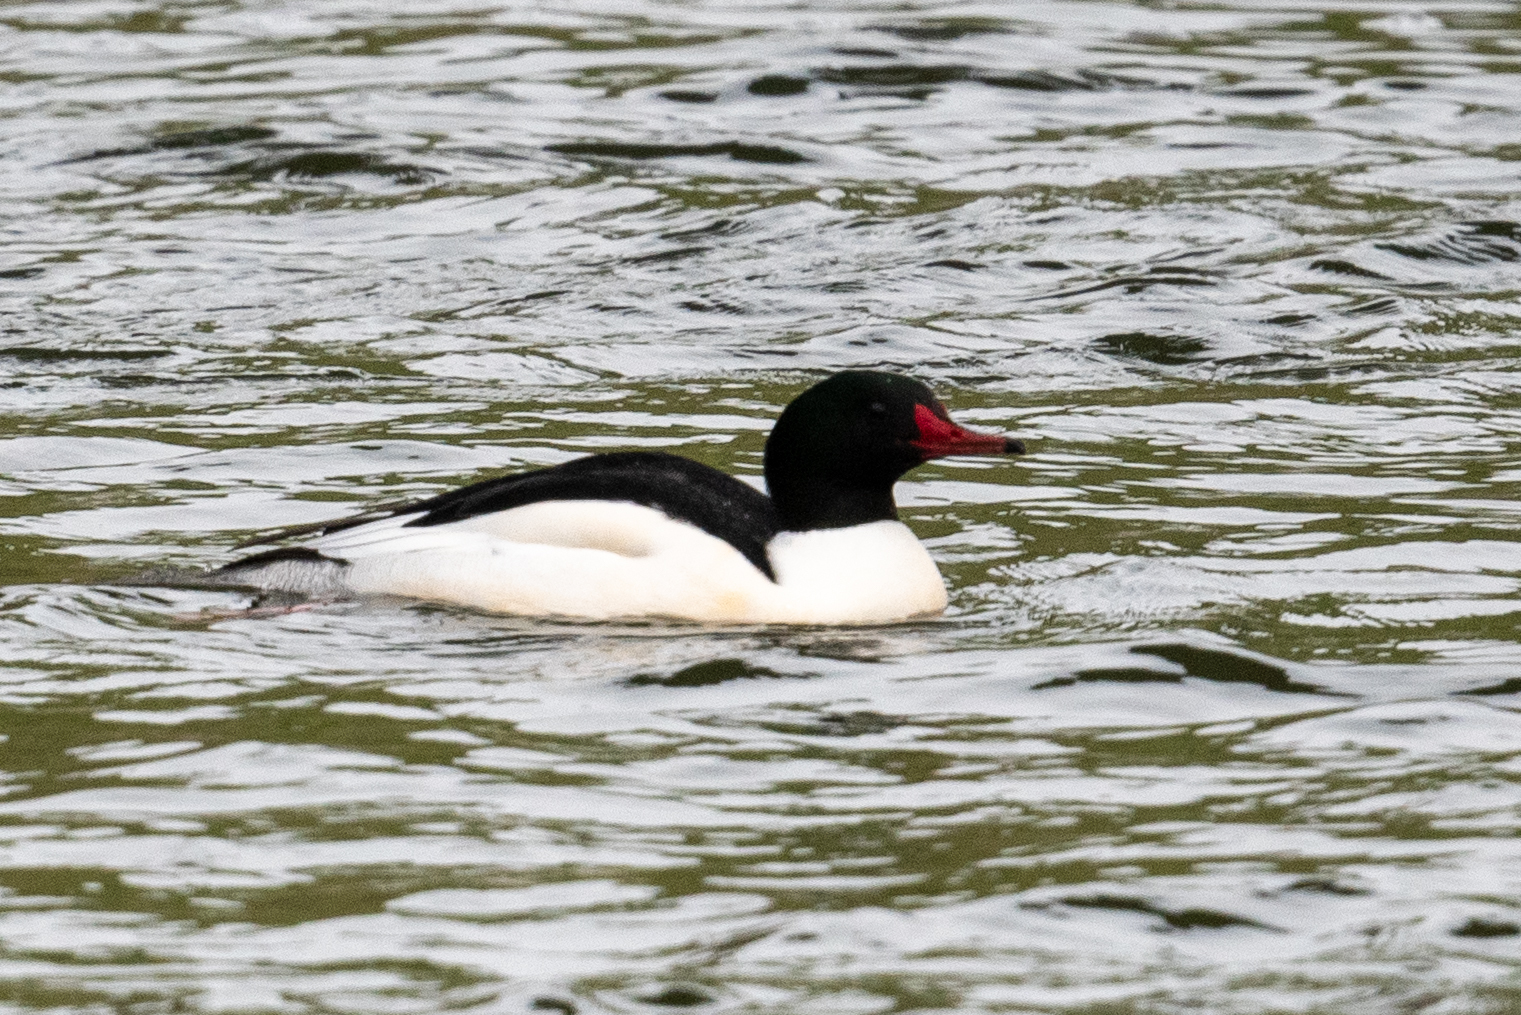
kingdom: Animalia
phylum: Chordata
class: Aves
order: Anseriformes
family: Anatidae
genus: Mergus
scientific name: Mergus merganser
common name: Common merganser
